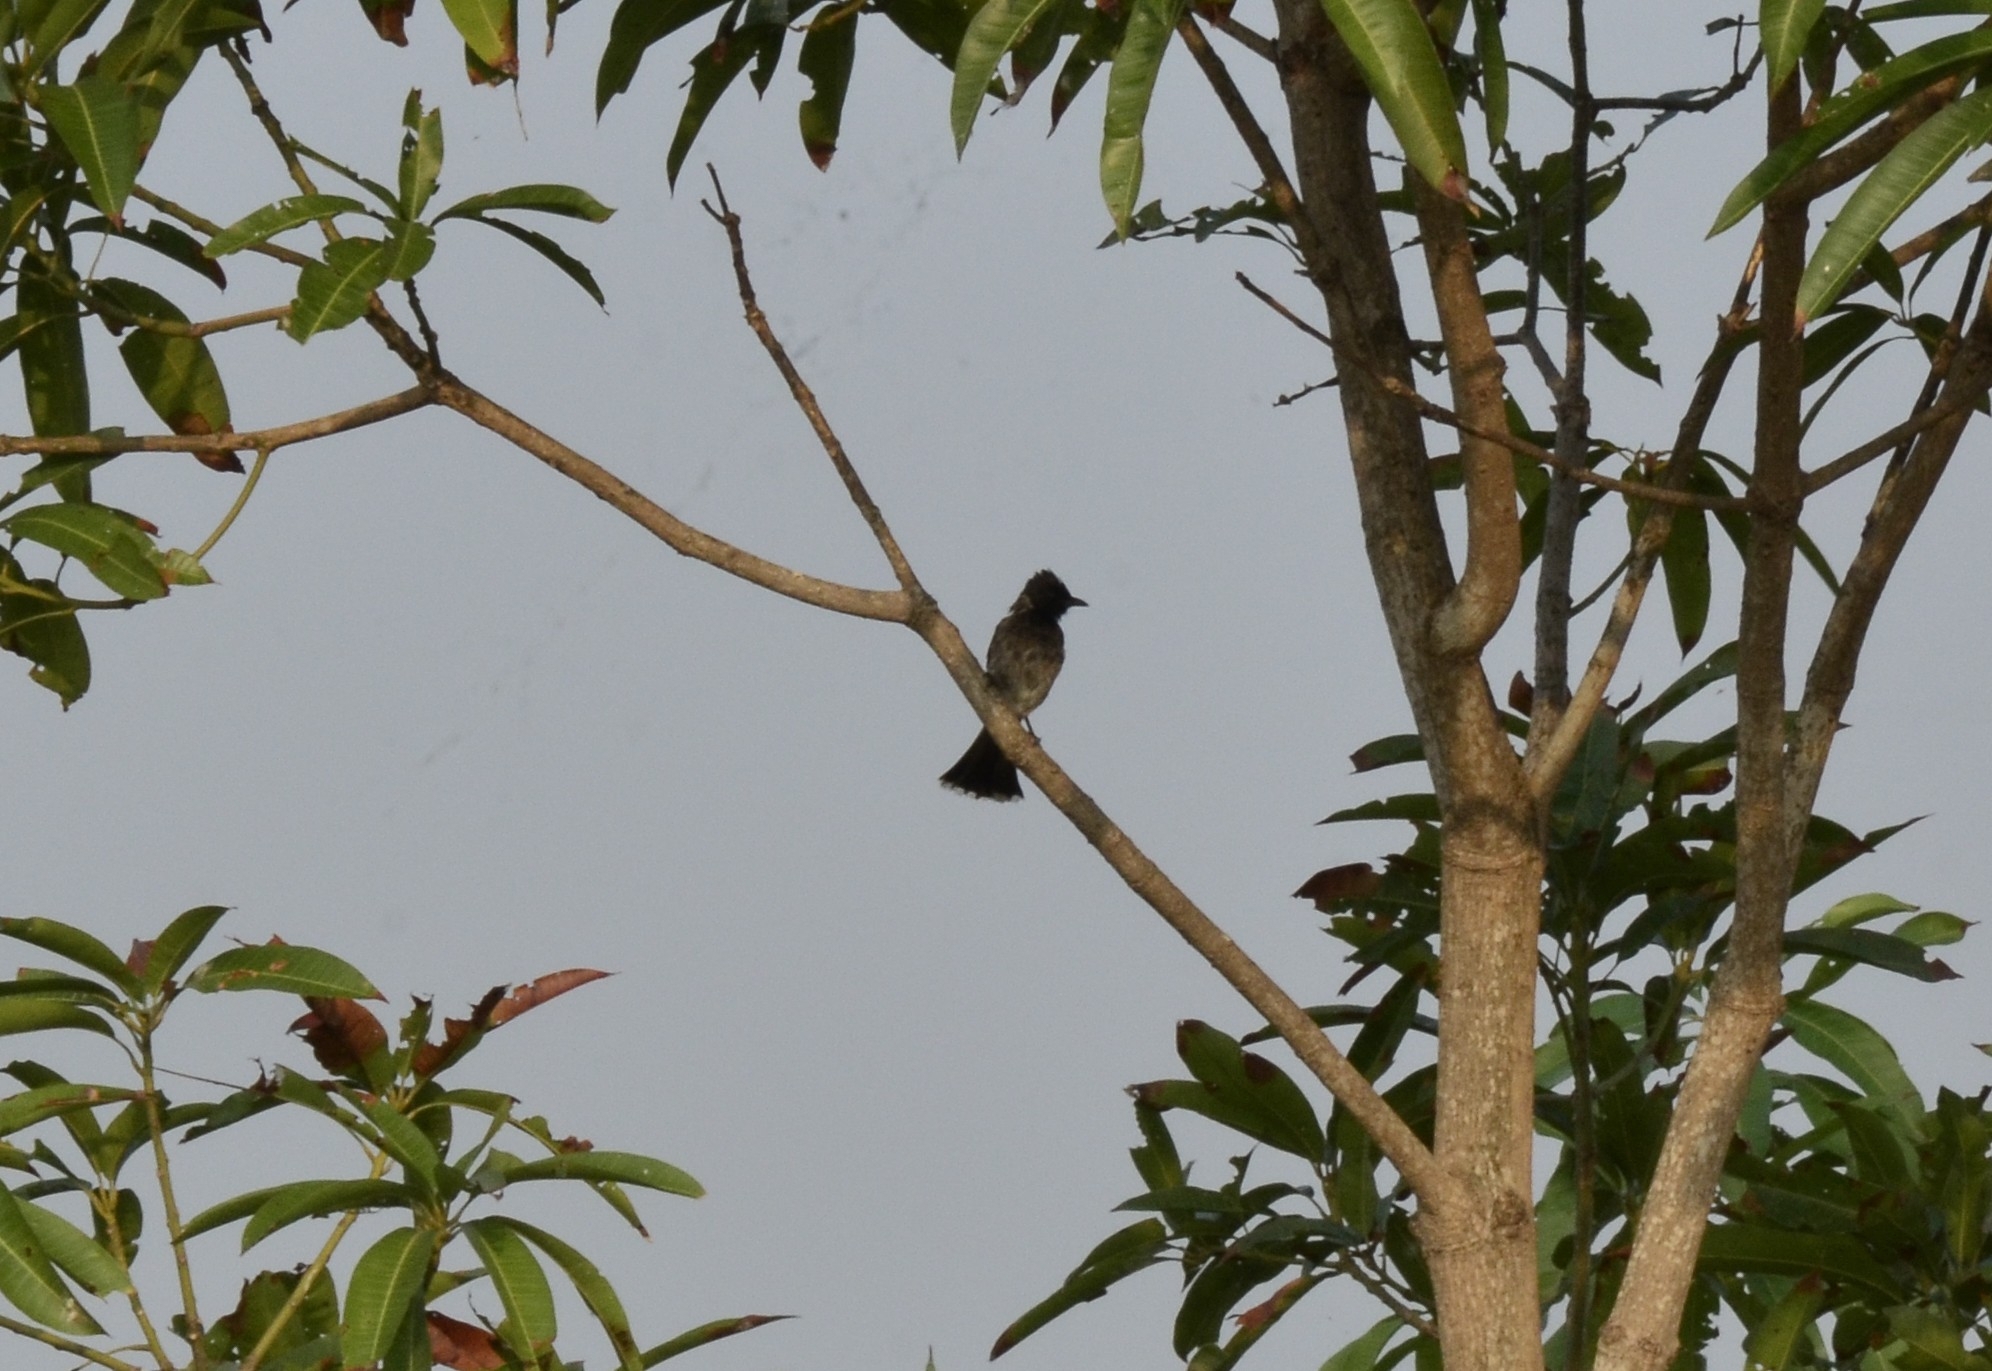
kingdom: Animalia
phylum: Chordata
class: Aves
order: Passeriformes
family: Pycnonotidae
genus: Pycnonotus
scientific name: Pycnonotus cafer
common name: Red-vented bulbul
